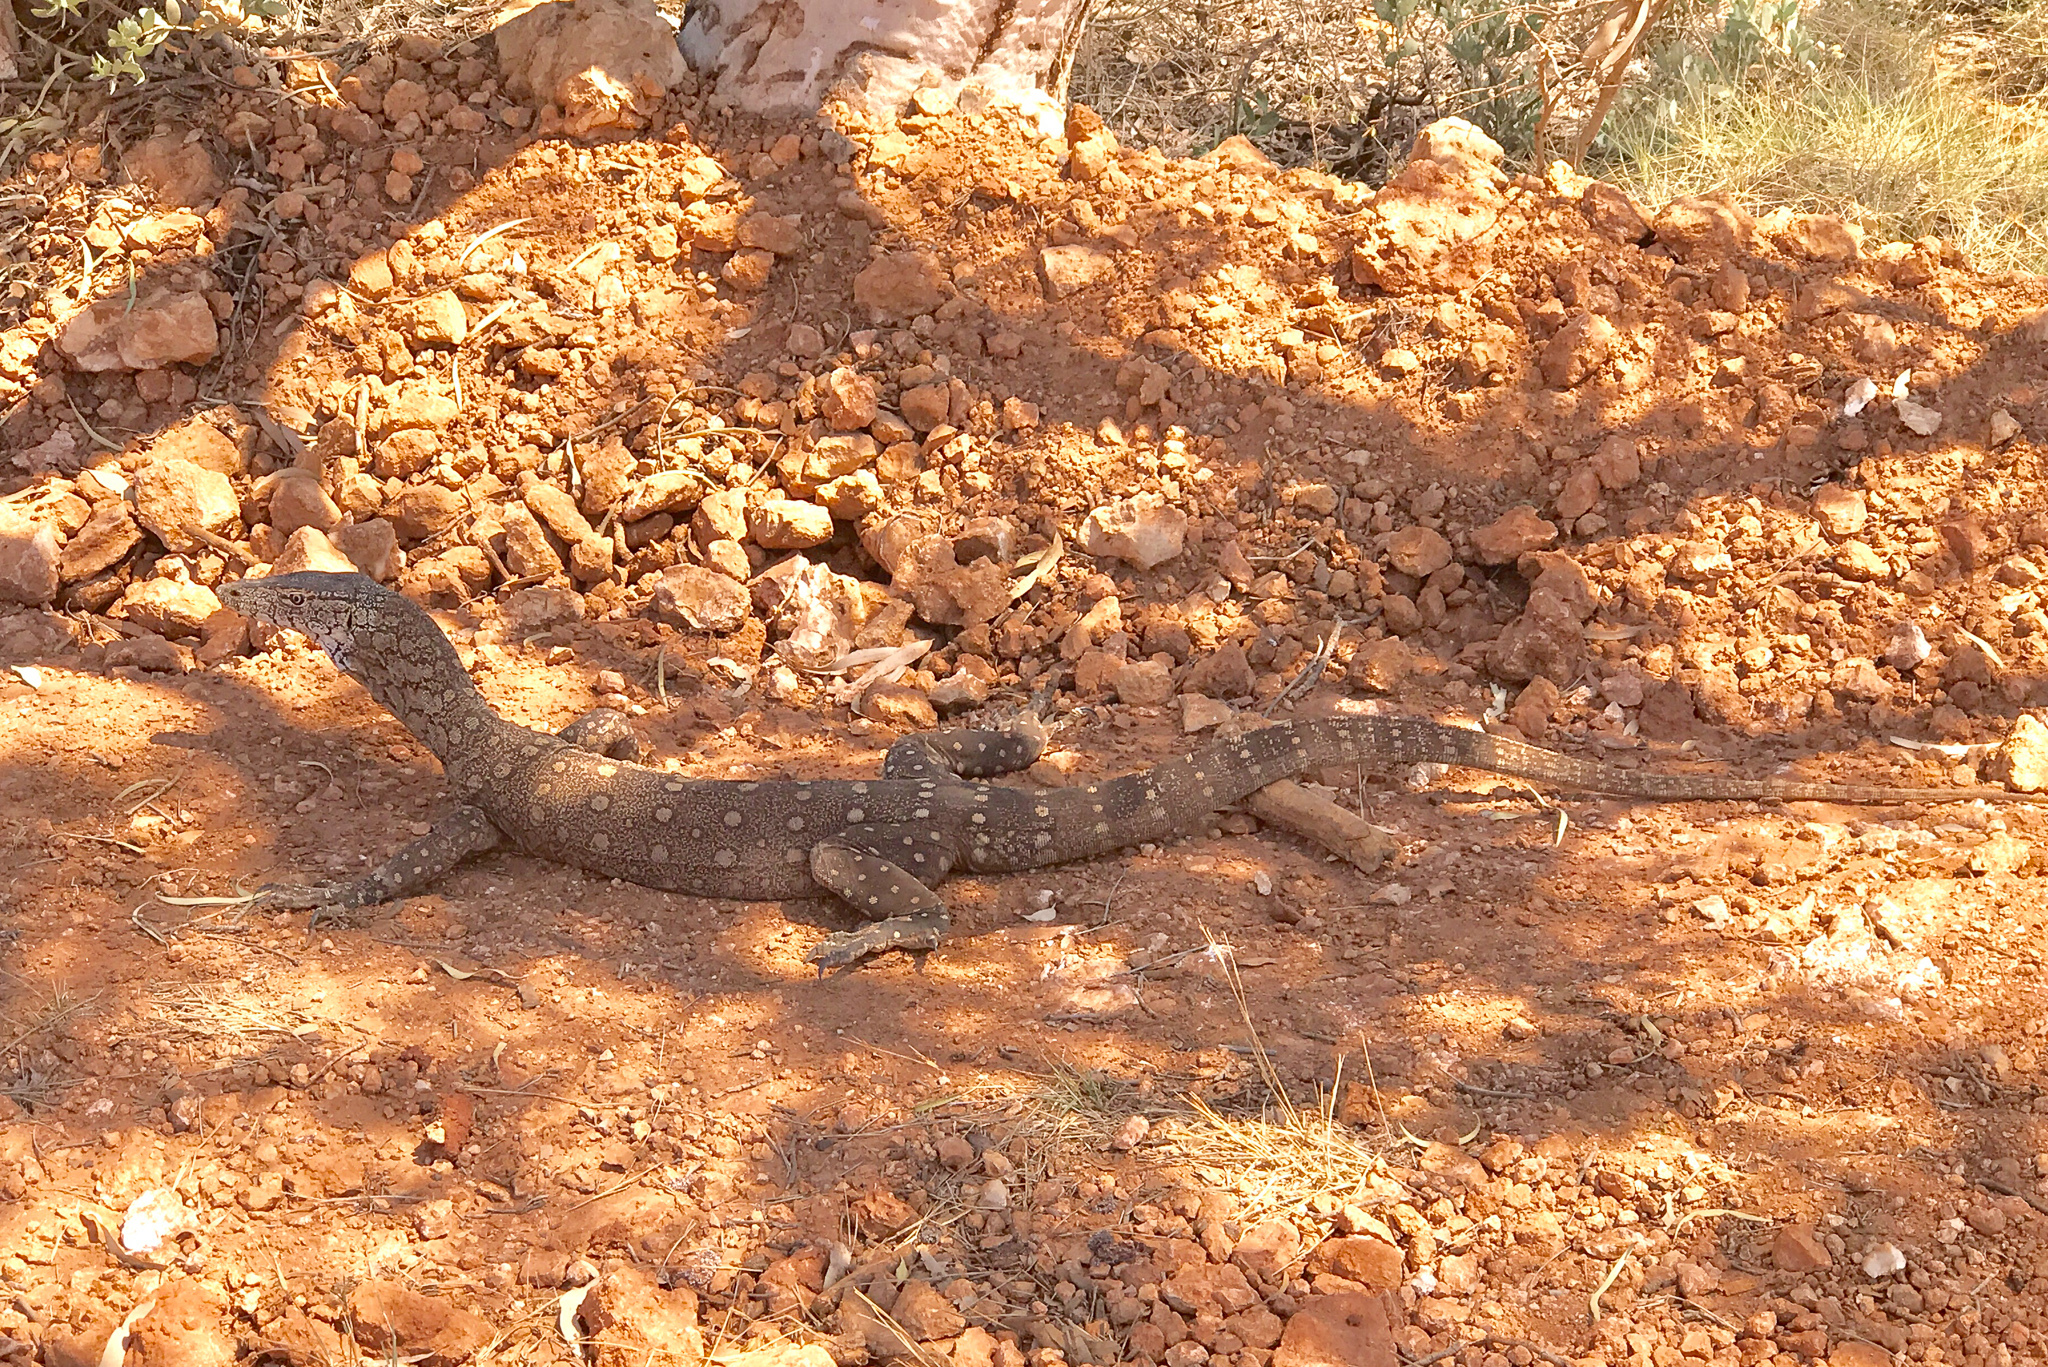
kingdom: Animalia
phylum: Chordata
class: Squamata
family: Varanidae
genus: Varanus
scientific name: Varanus giganteus
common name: Perentie
